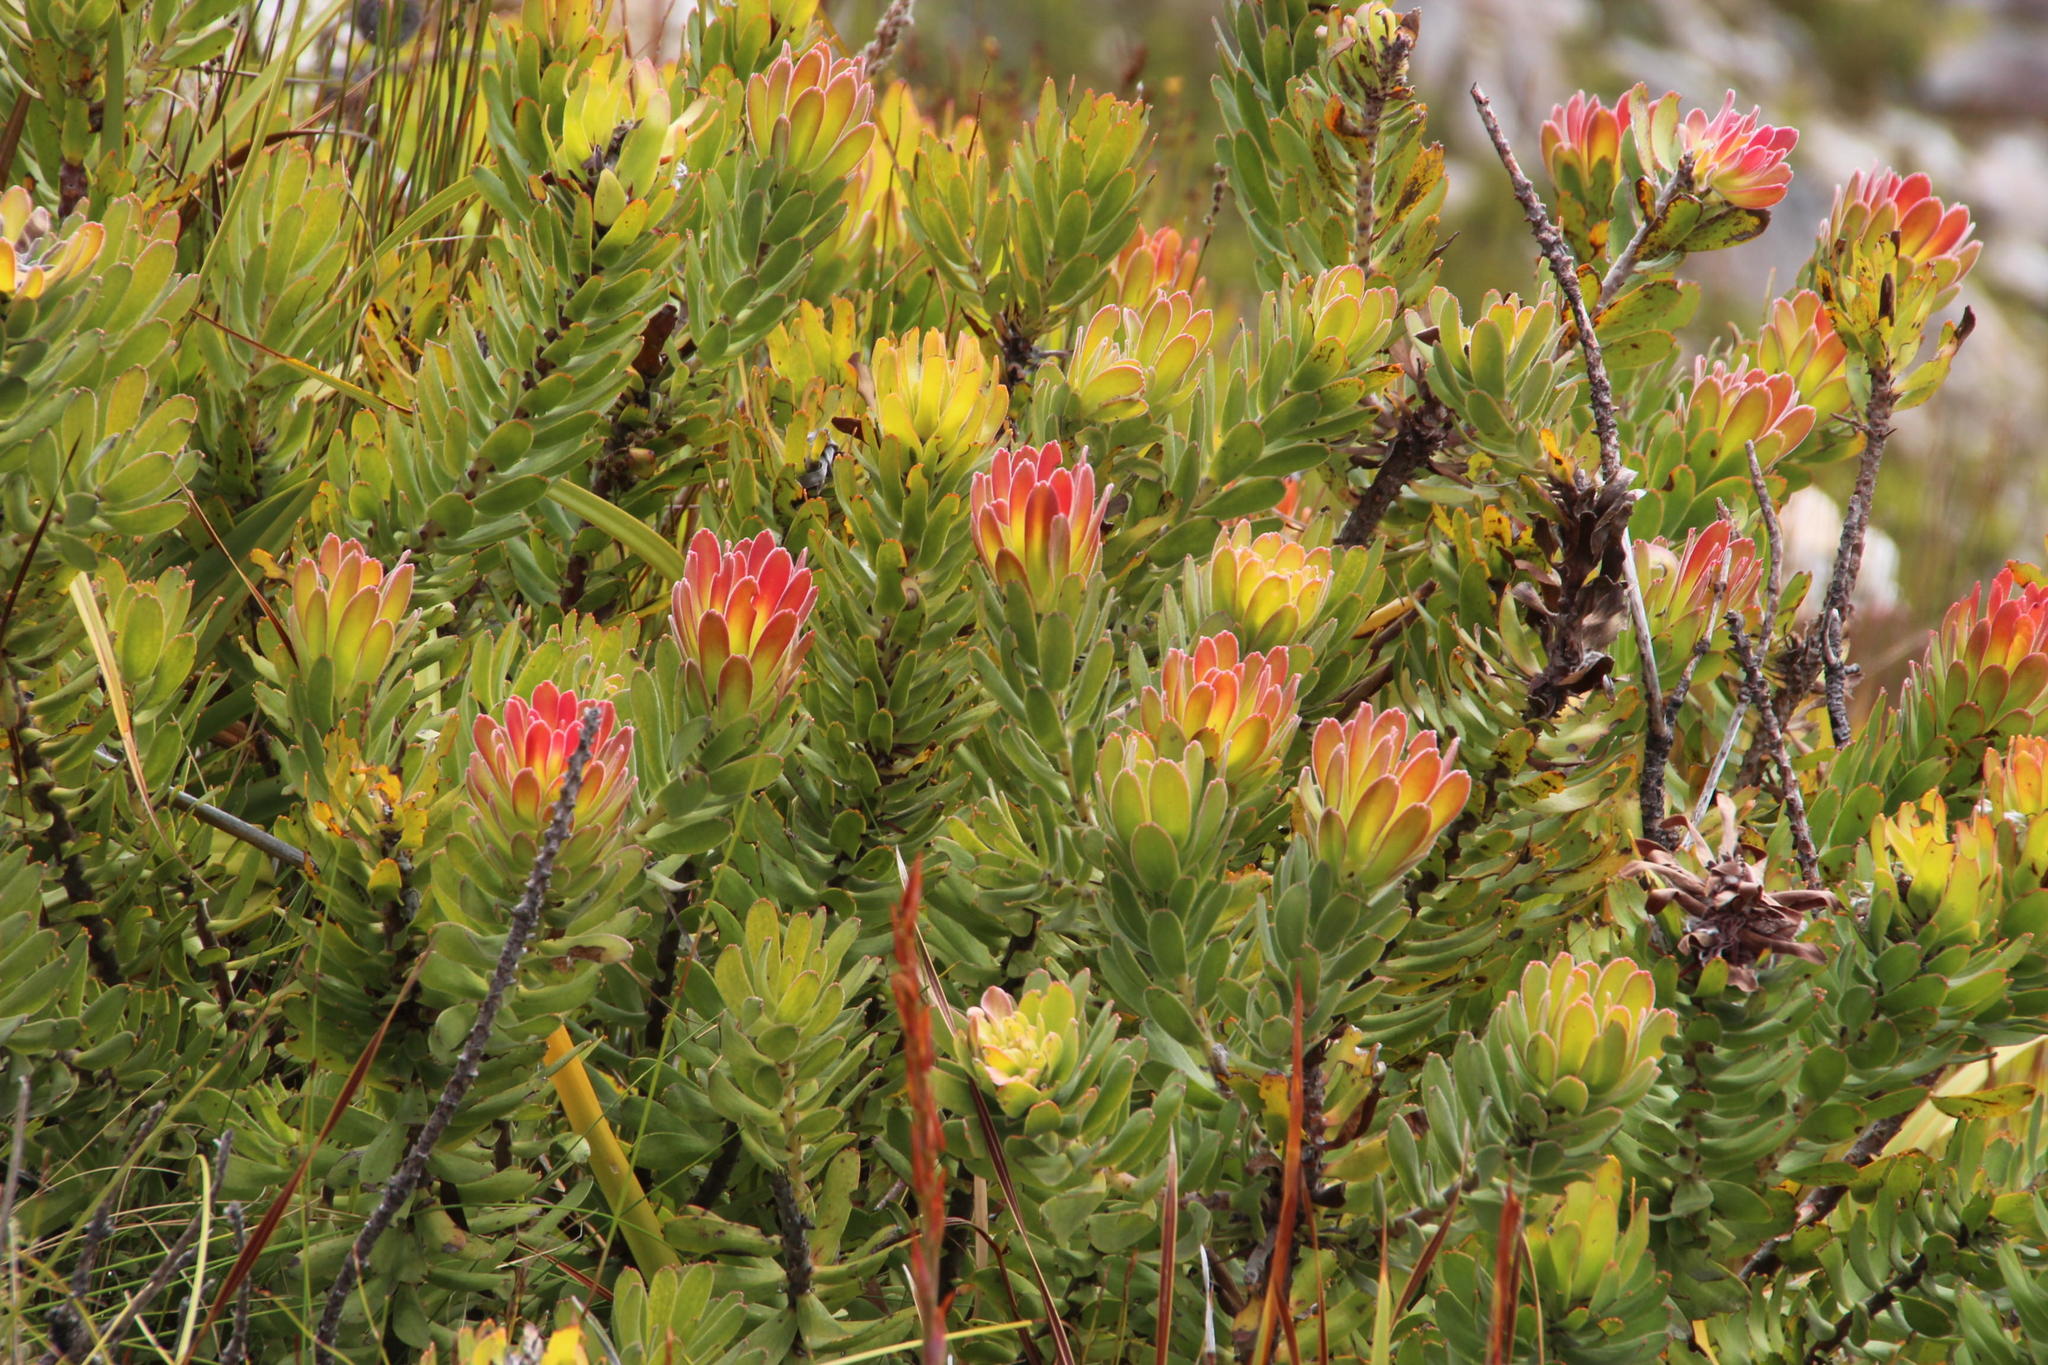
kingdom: Plantae
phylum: Tracheophyta
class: Magnoliopsida
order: Proteales
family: Proteaceae
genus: Mimetes
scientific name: Mimetes cucullatus
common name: Common pagoda
